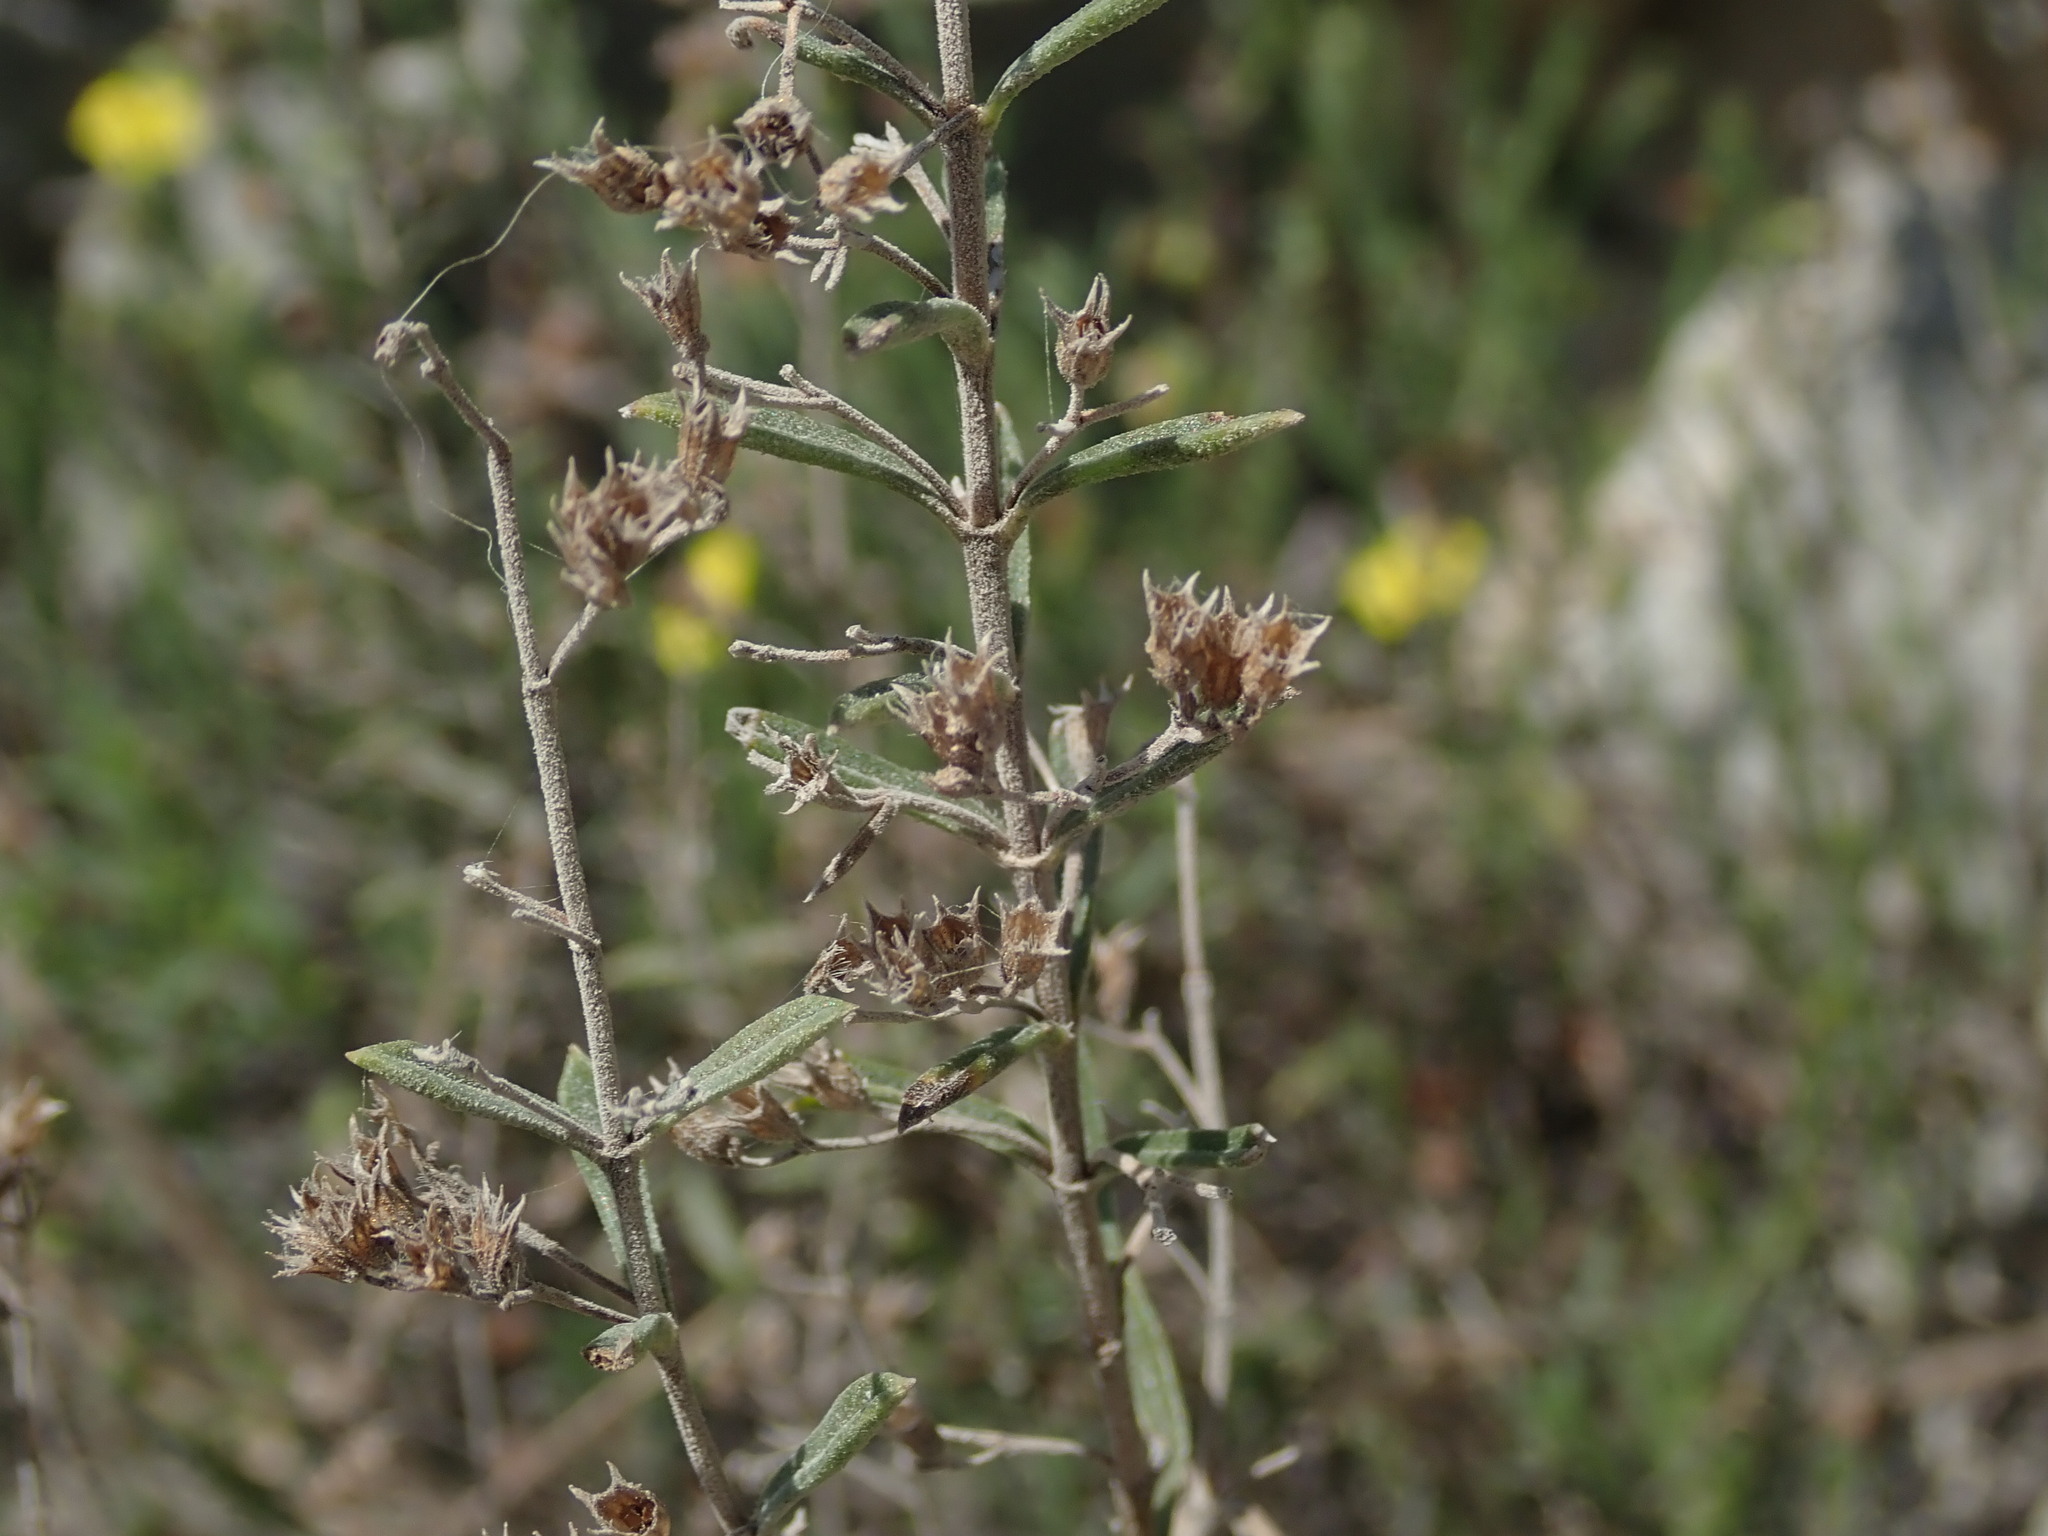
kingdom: Plantae
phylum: Tracheophyta
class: Magnoliopsida
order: Lamiales
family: Lamiaceae
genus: Satureja
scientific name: Satureja montana
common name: Winter savory
